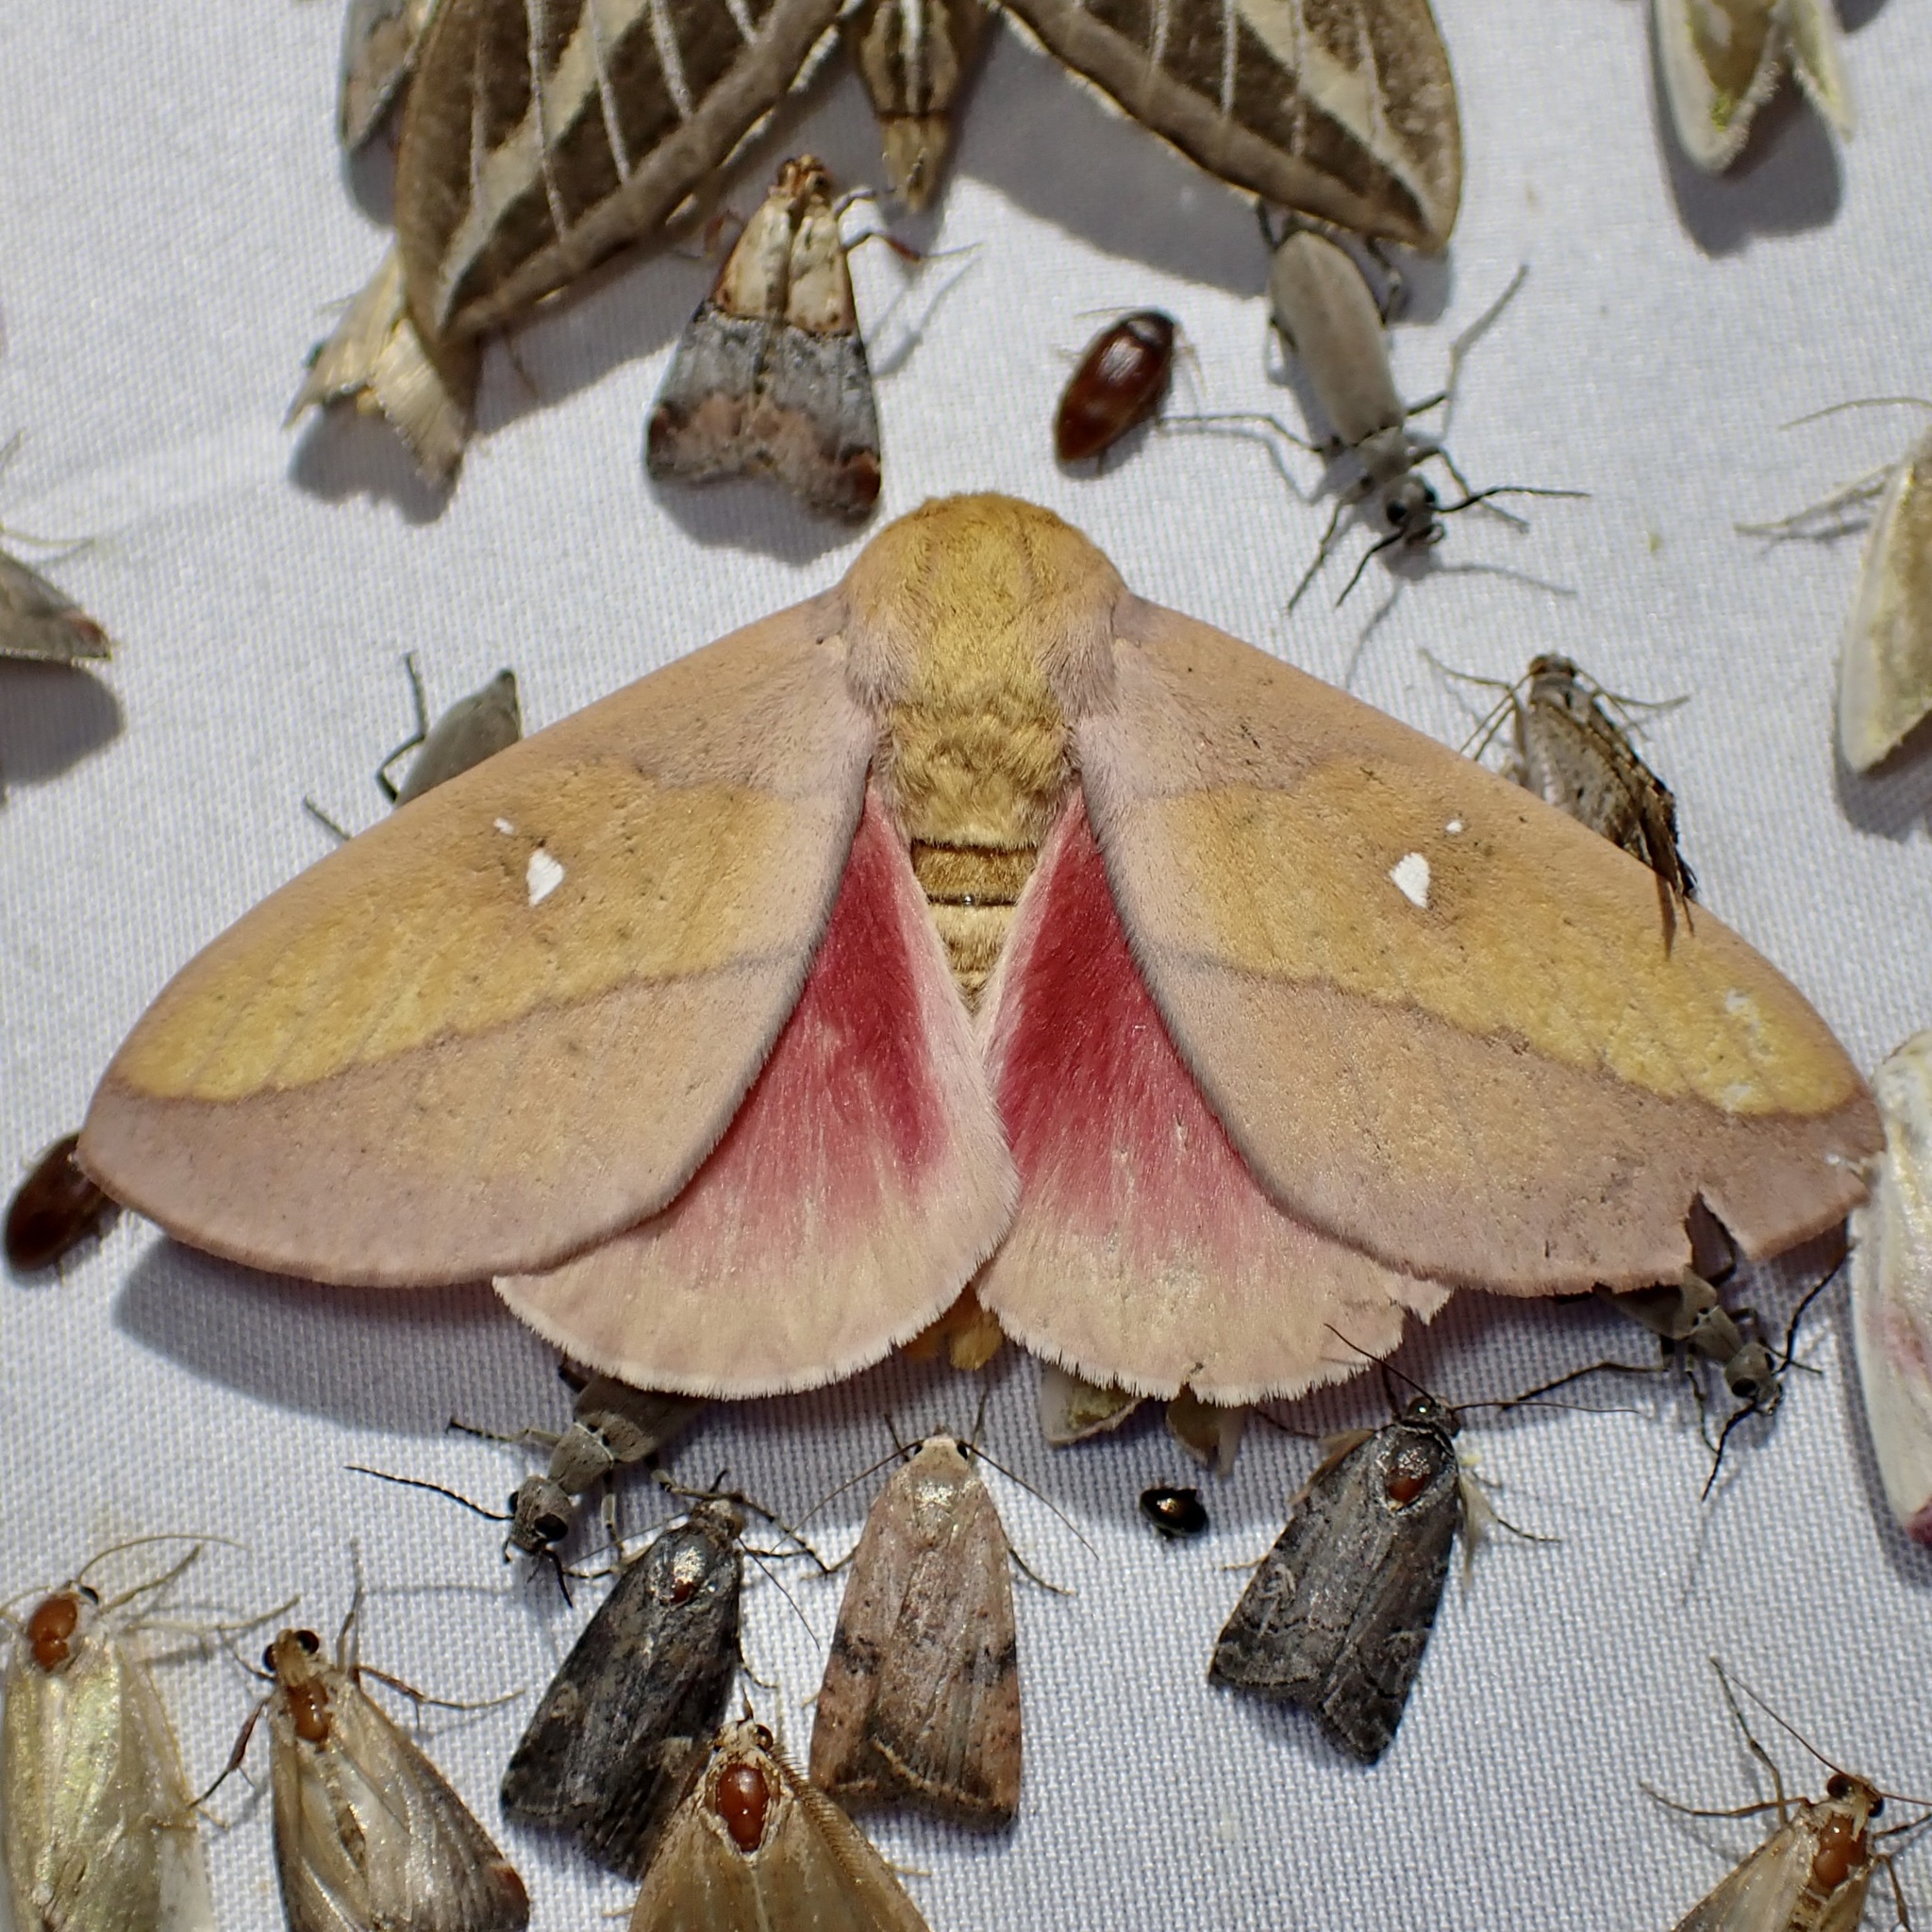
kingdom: Animalia
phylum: Arthropoda
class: Insecta
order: Lepidoptera
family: Saturniidae
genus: Syssphinx
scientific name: Syssphinx montana
